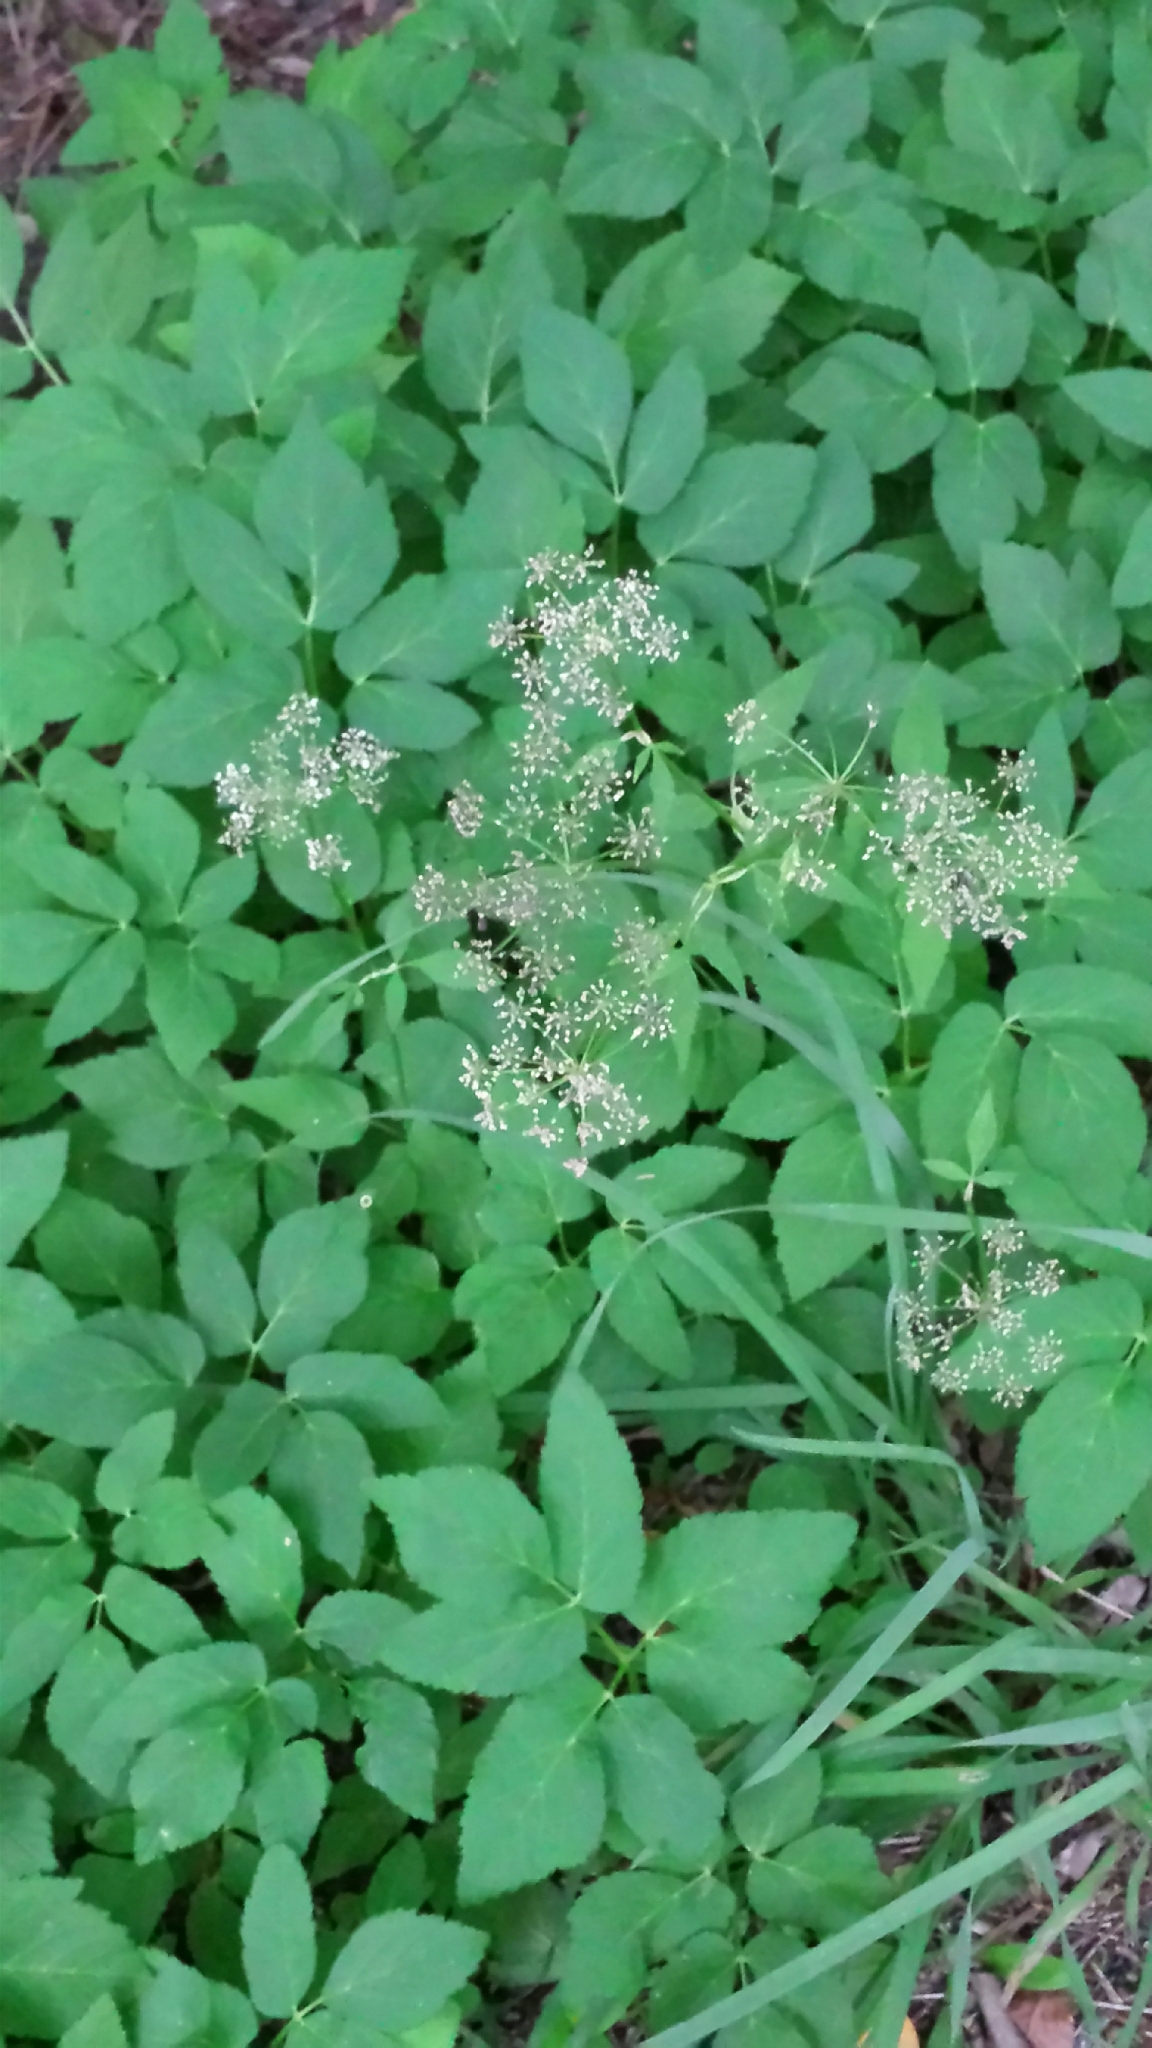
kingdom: Plantae
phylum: Tracheophyta
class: Magnoliopsida
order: Apiales
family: Apiaceae
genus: Aegopodium
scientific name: Aegopodium podagraria
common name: Ground-elder
